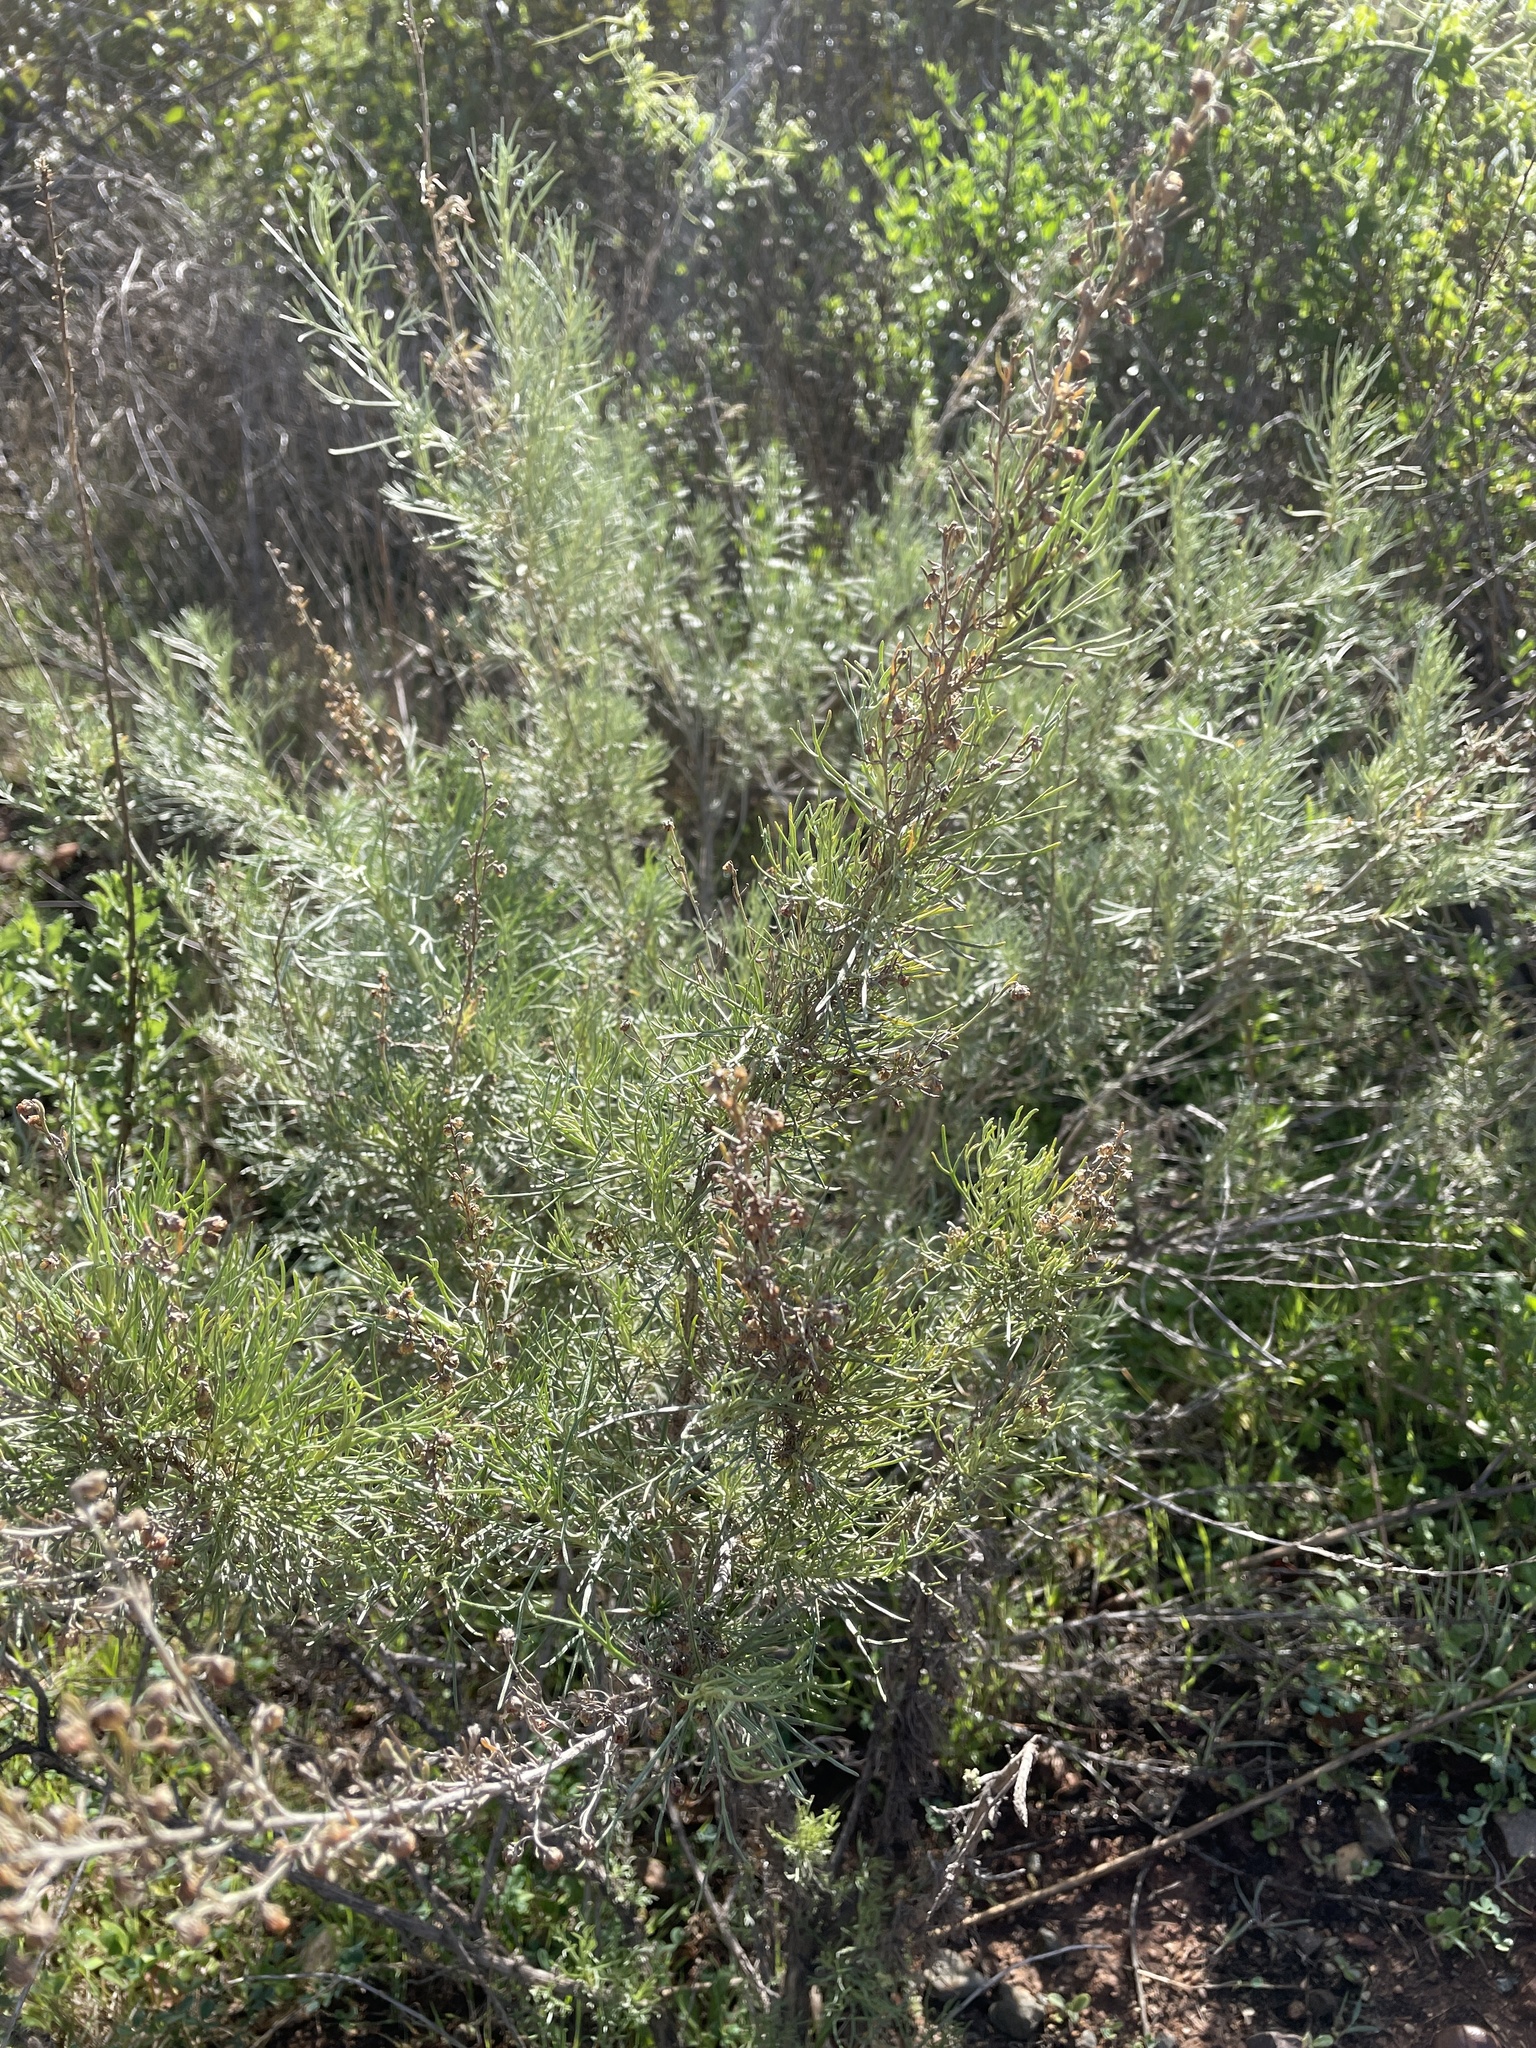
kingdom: Plantae
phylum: Tracheophyta
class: Magnoliopsida
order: Asterales
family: Asteraceae
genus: Artemisia
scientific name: Artemisia californica
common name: California sagebrush
